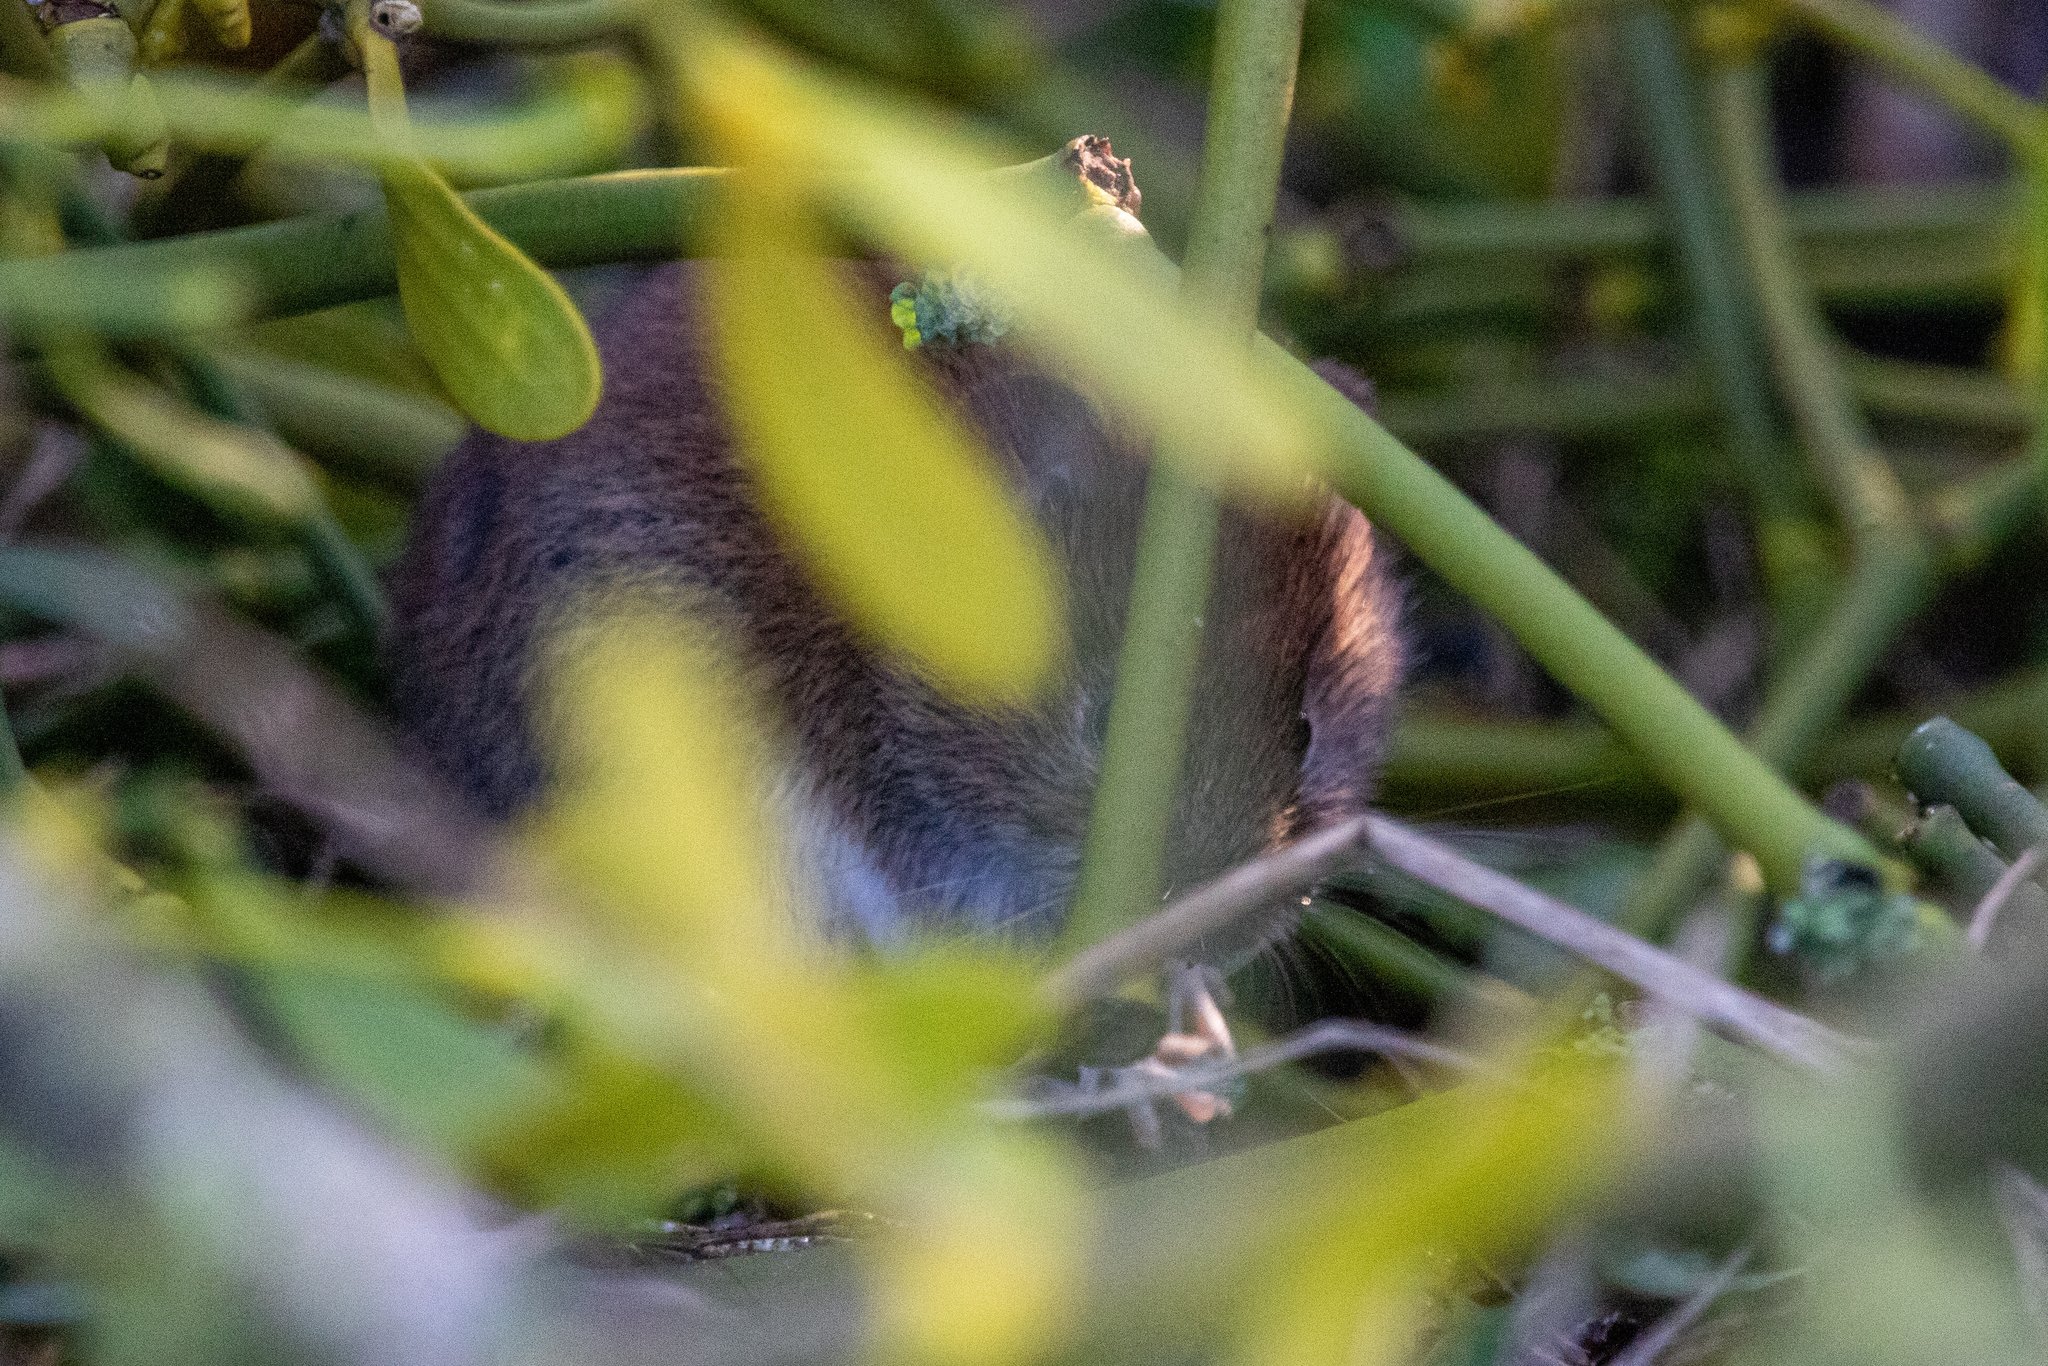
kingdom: Animalia
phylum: Chordata
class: Mammalia
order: Rodentia
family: Cricetidae
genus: Myodes
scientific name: Myodes glareolus
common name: Bank vole
